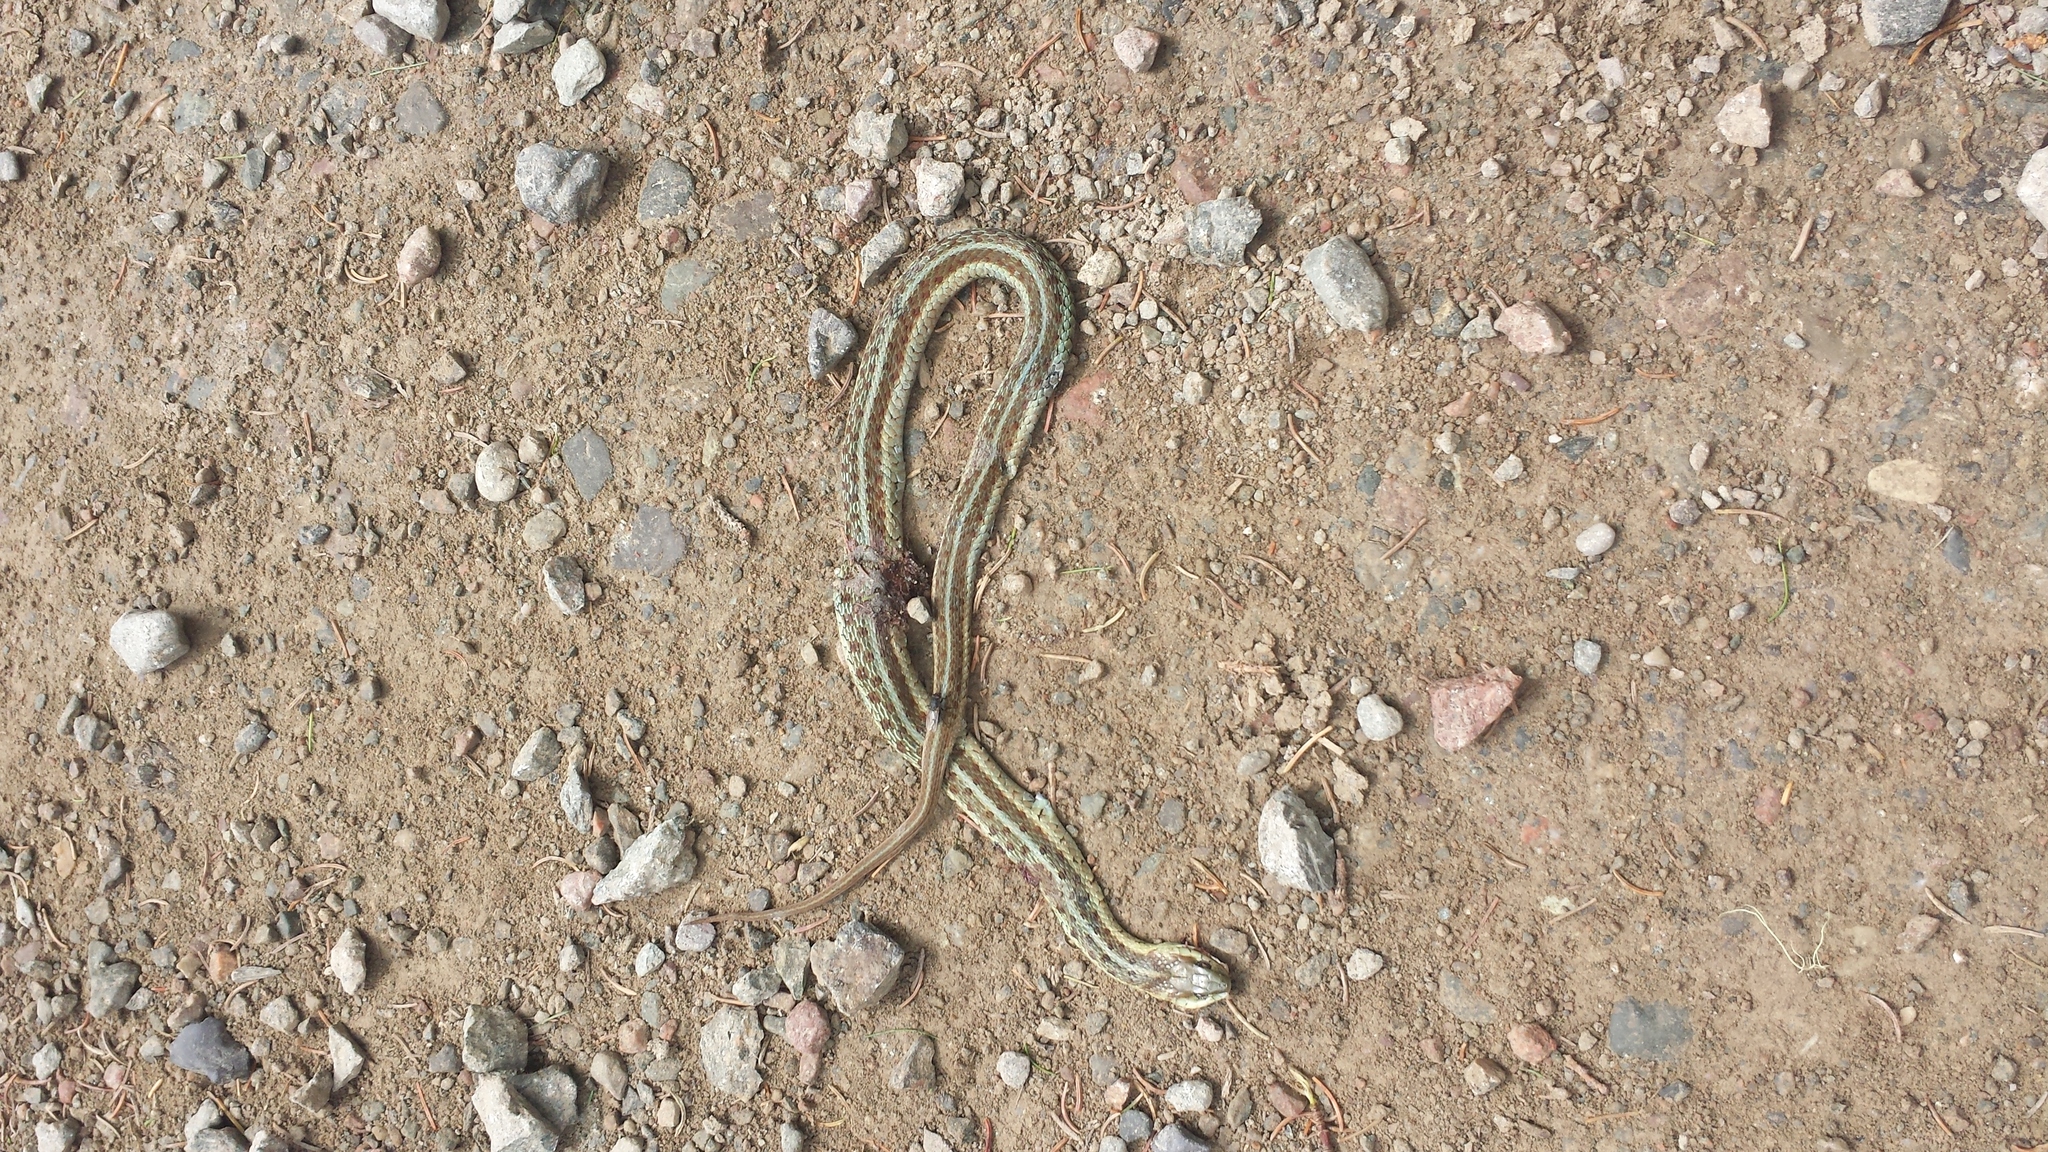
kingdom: Animalia
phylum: Chordata
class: Squamata
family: Colubridae
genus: Thamnophis
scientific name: Thamnophis sirtalis
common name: Common garter snake
